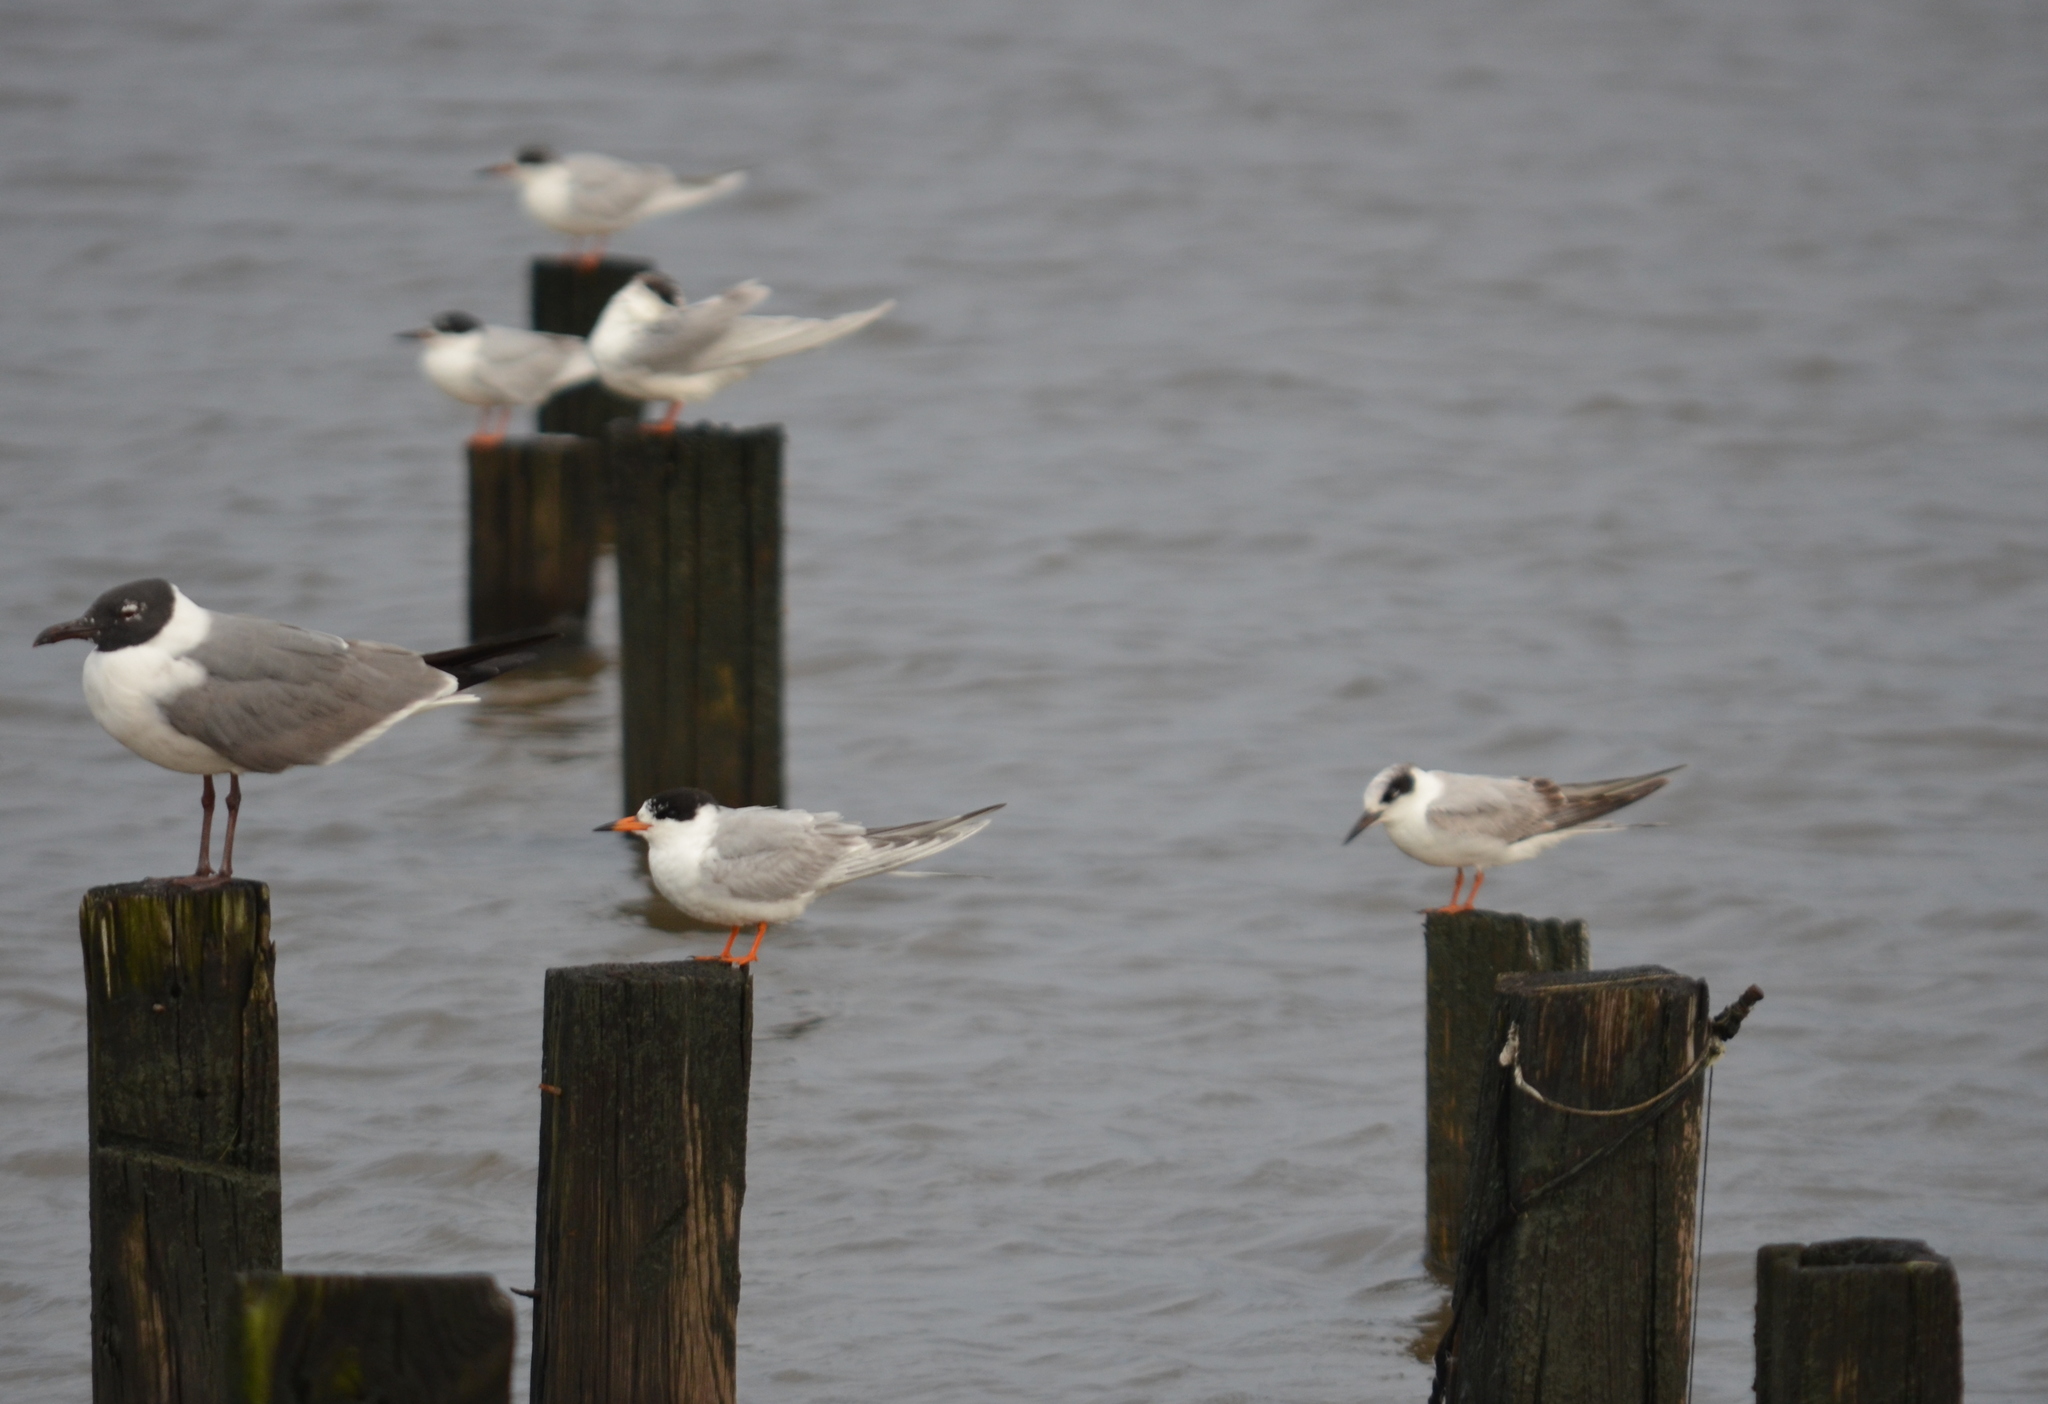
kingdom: Animalia
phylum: Chordata
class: Aves
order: Charadriiformes
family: Laridae
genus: Sterna
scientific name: Sterna forsteri
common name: Forster's tern
